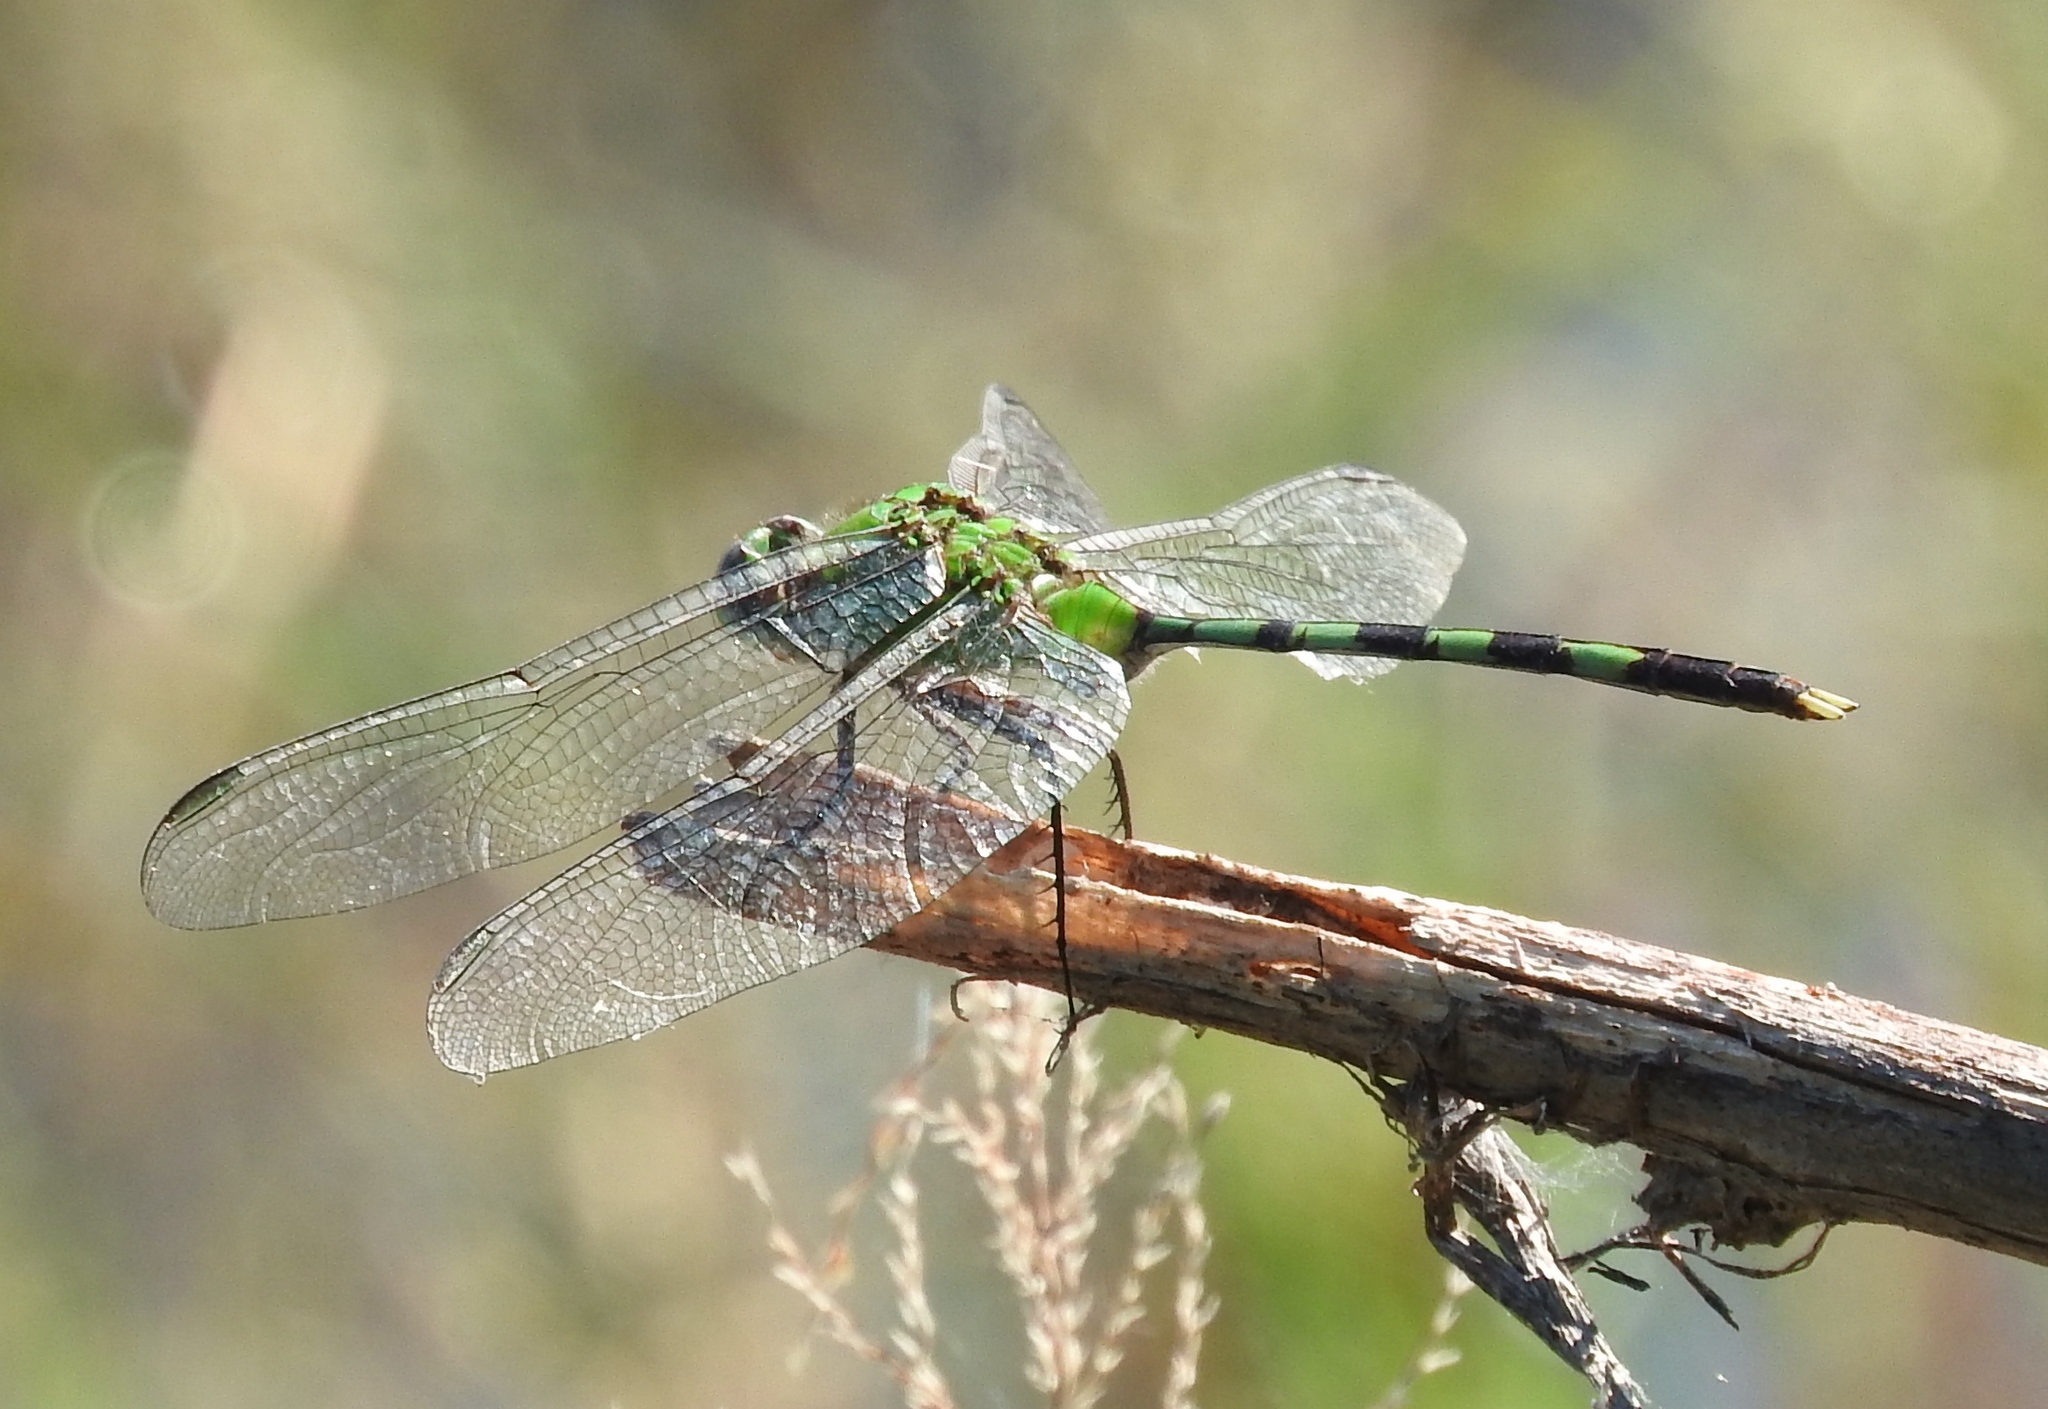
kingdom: Animalia
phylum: Arthropoda
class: Insecta
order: Odonata
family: Libellulidae
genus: Erythemis
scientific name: Erythemis vesiculosa
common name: Great pondhawk
